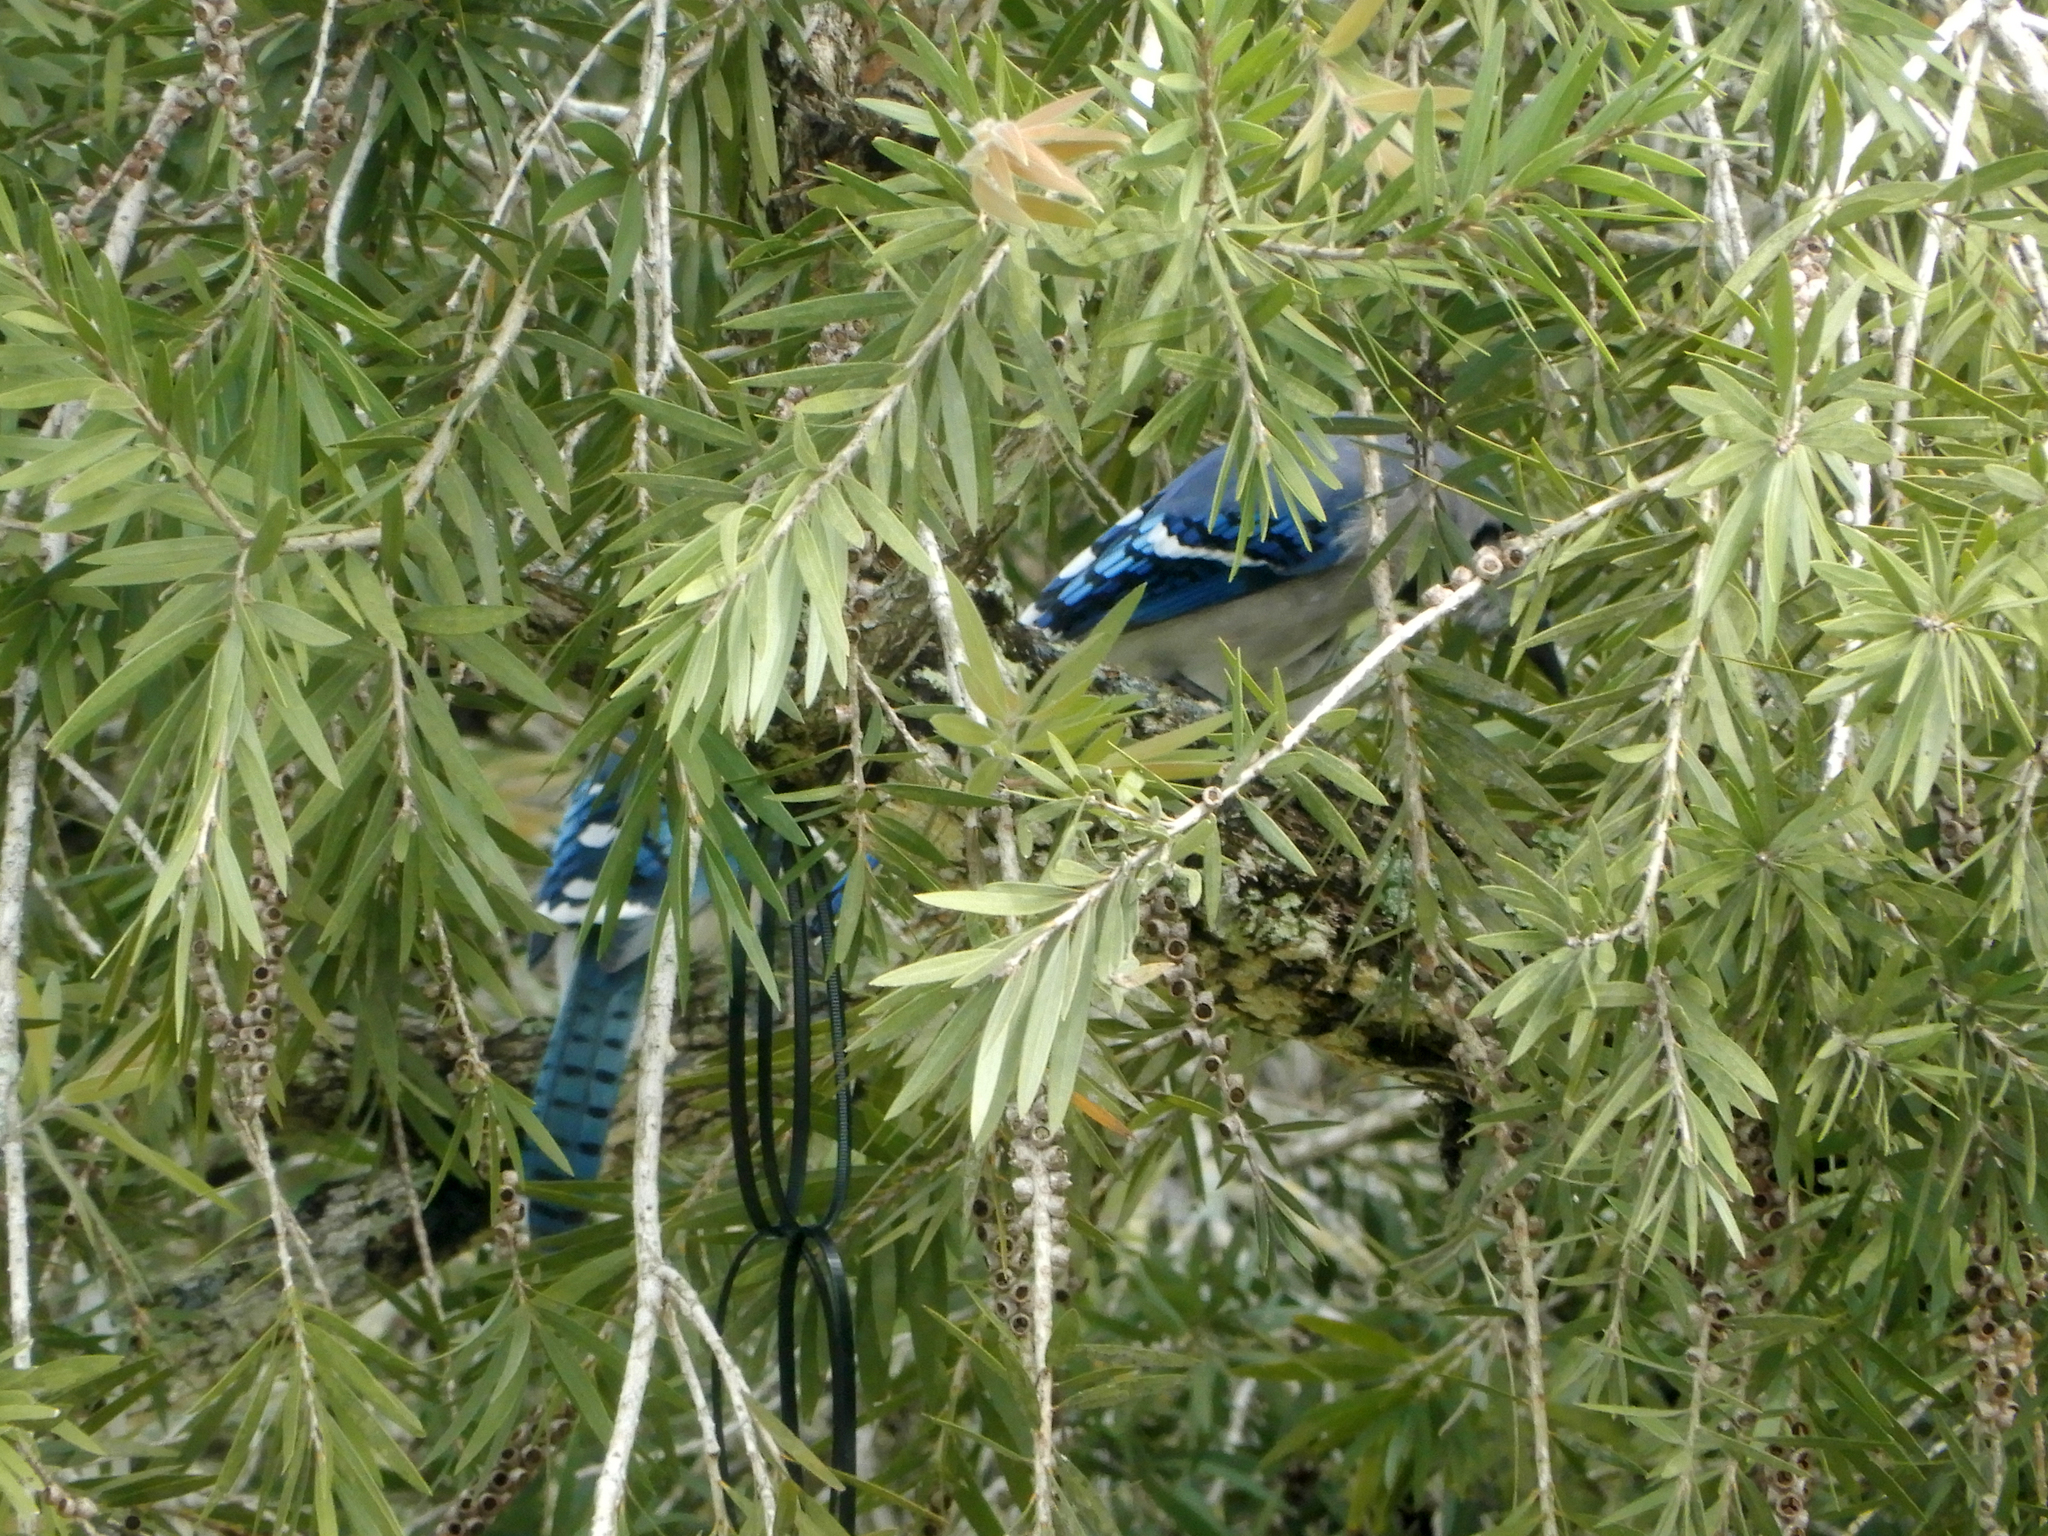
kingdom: Animalia
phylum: Chordata
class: Aves
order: Passeriformes
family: Corvidae
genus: Cyanocitta
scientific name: Cyanocitta cristata
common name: Blue jay
